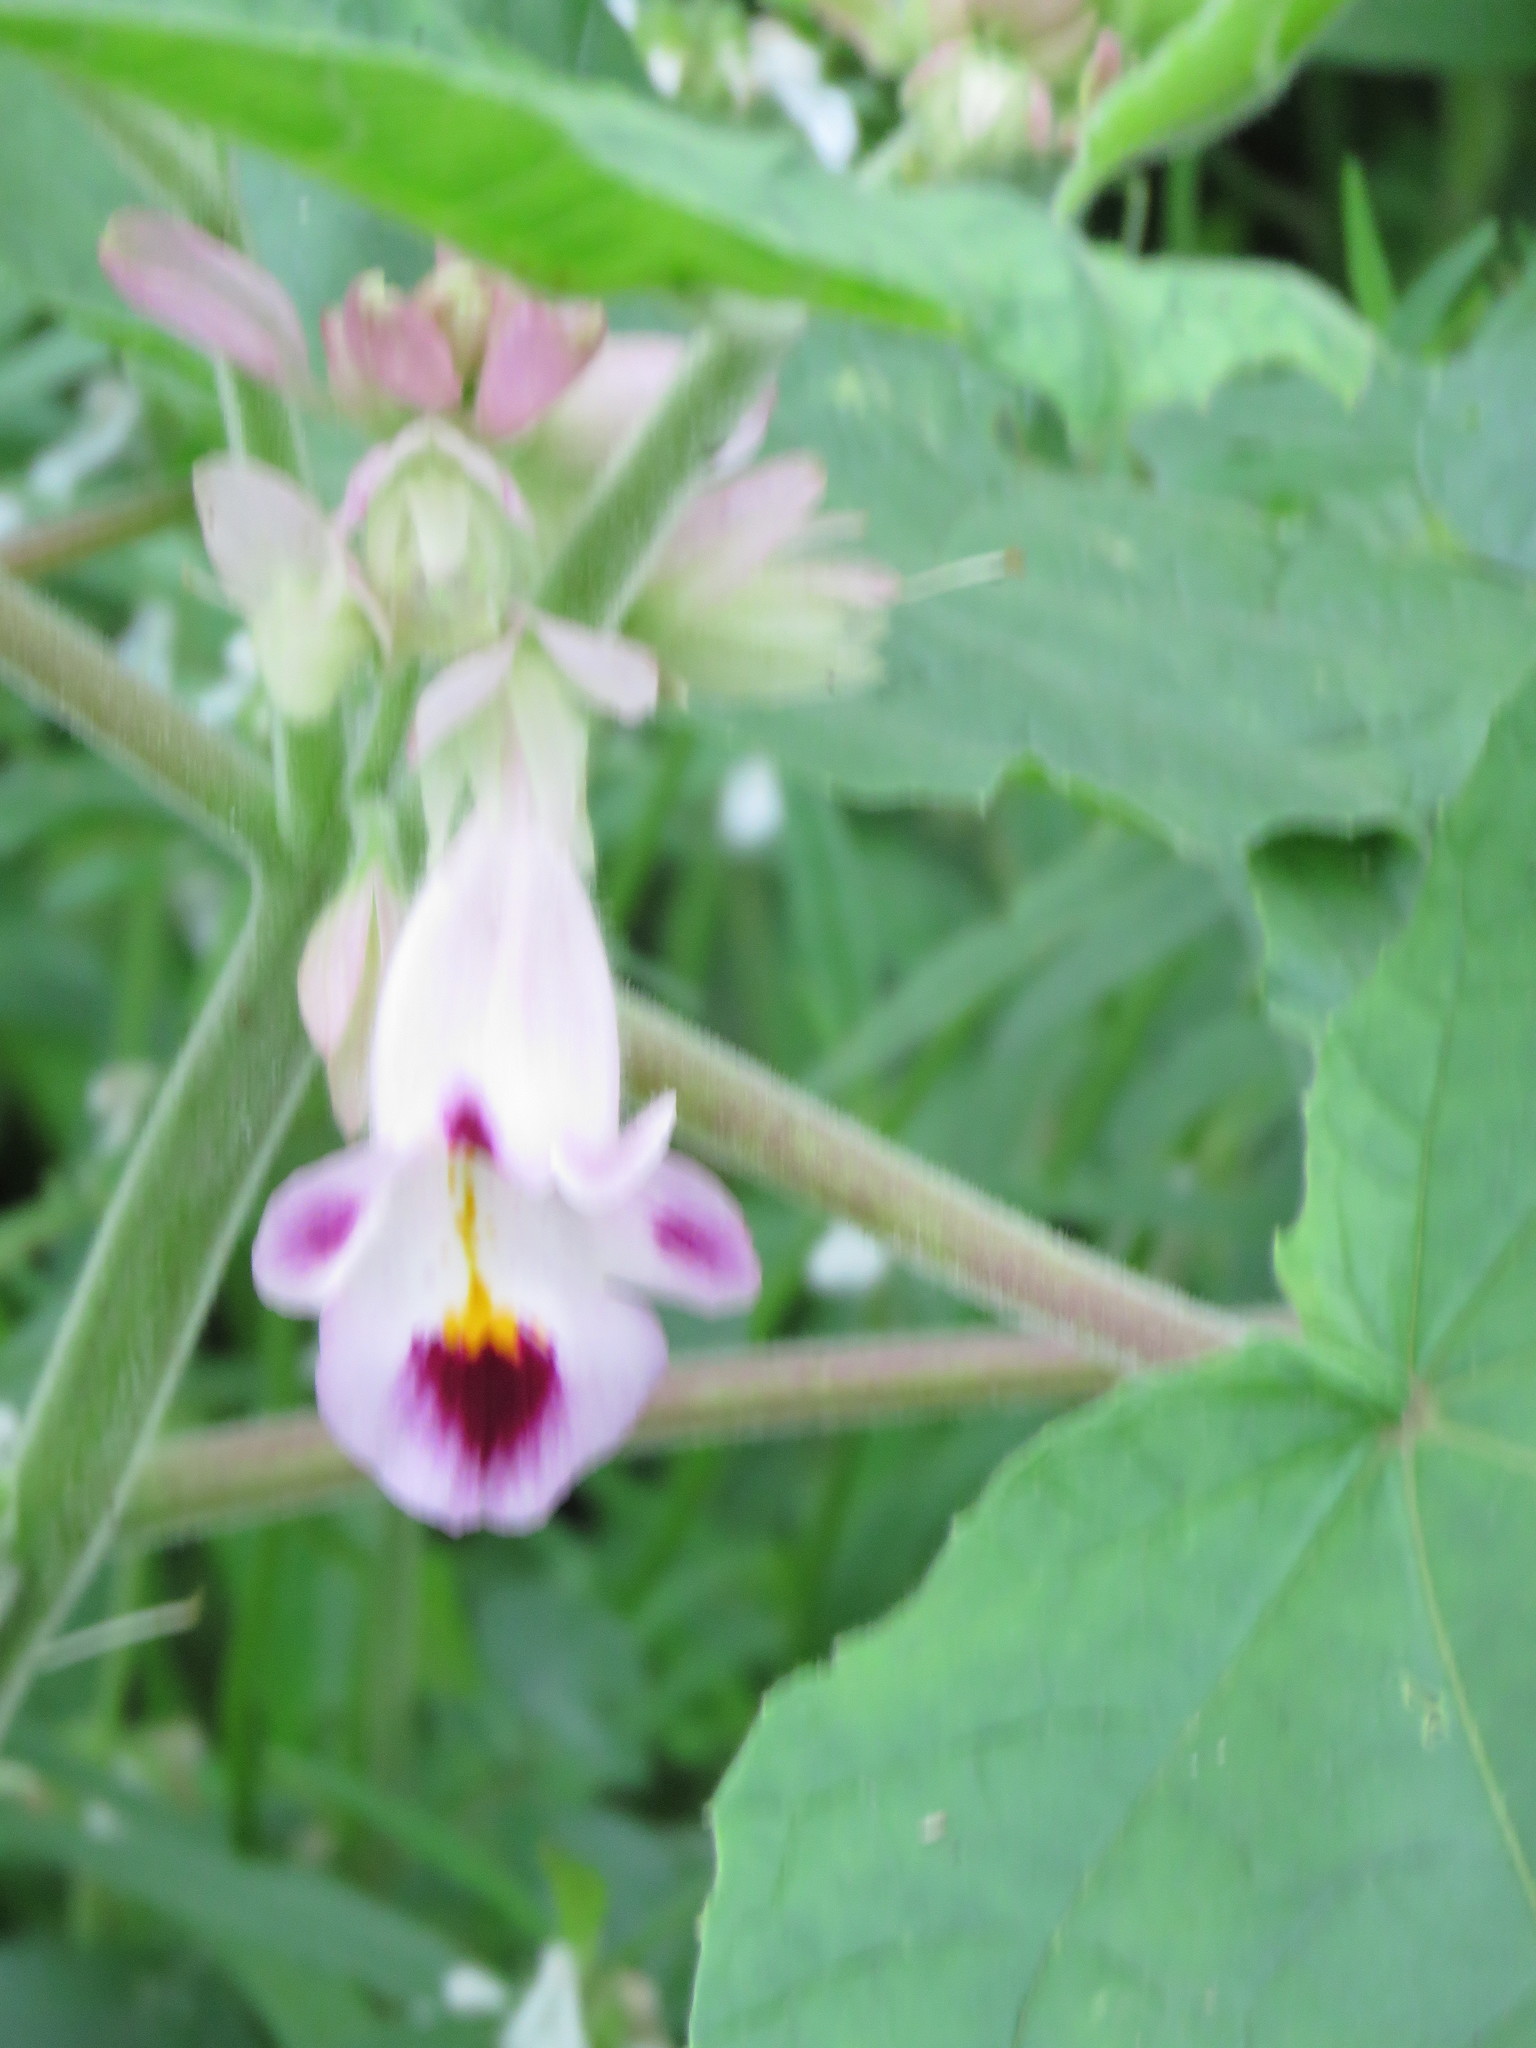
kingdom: Plantae
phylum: Tracheophyta
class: Magnoliopsida
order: Lamiales
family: Martyniaceae
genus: Martynia
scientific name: Martynia annua
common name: Tiger's-claw
